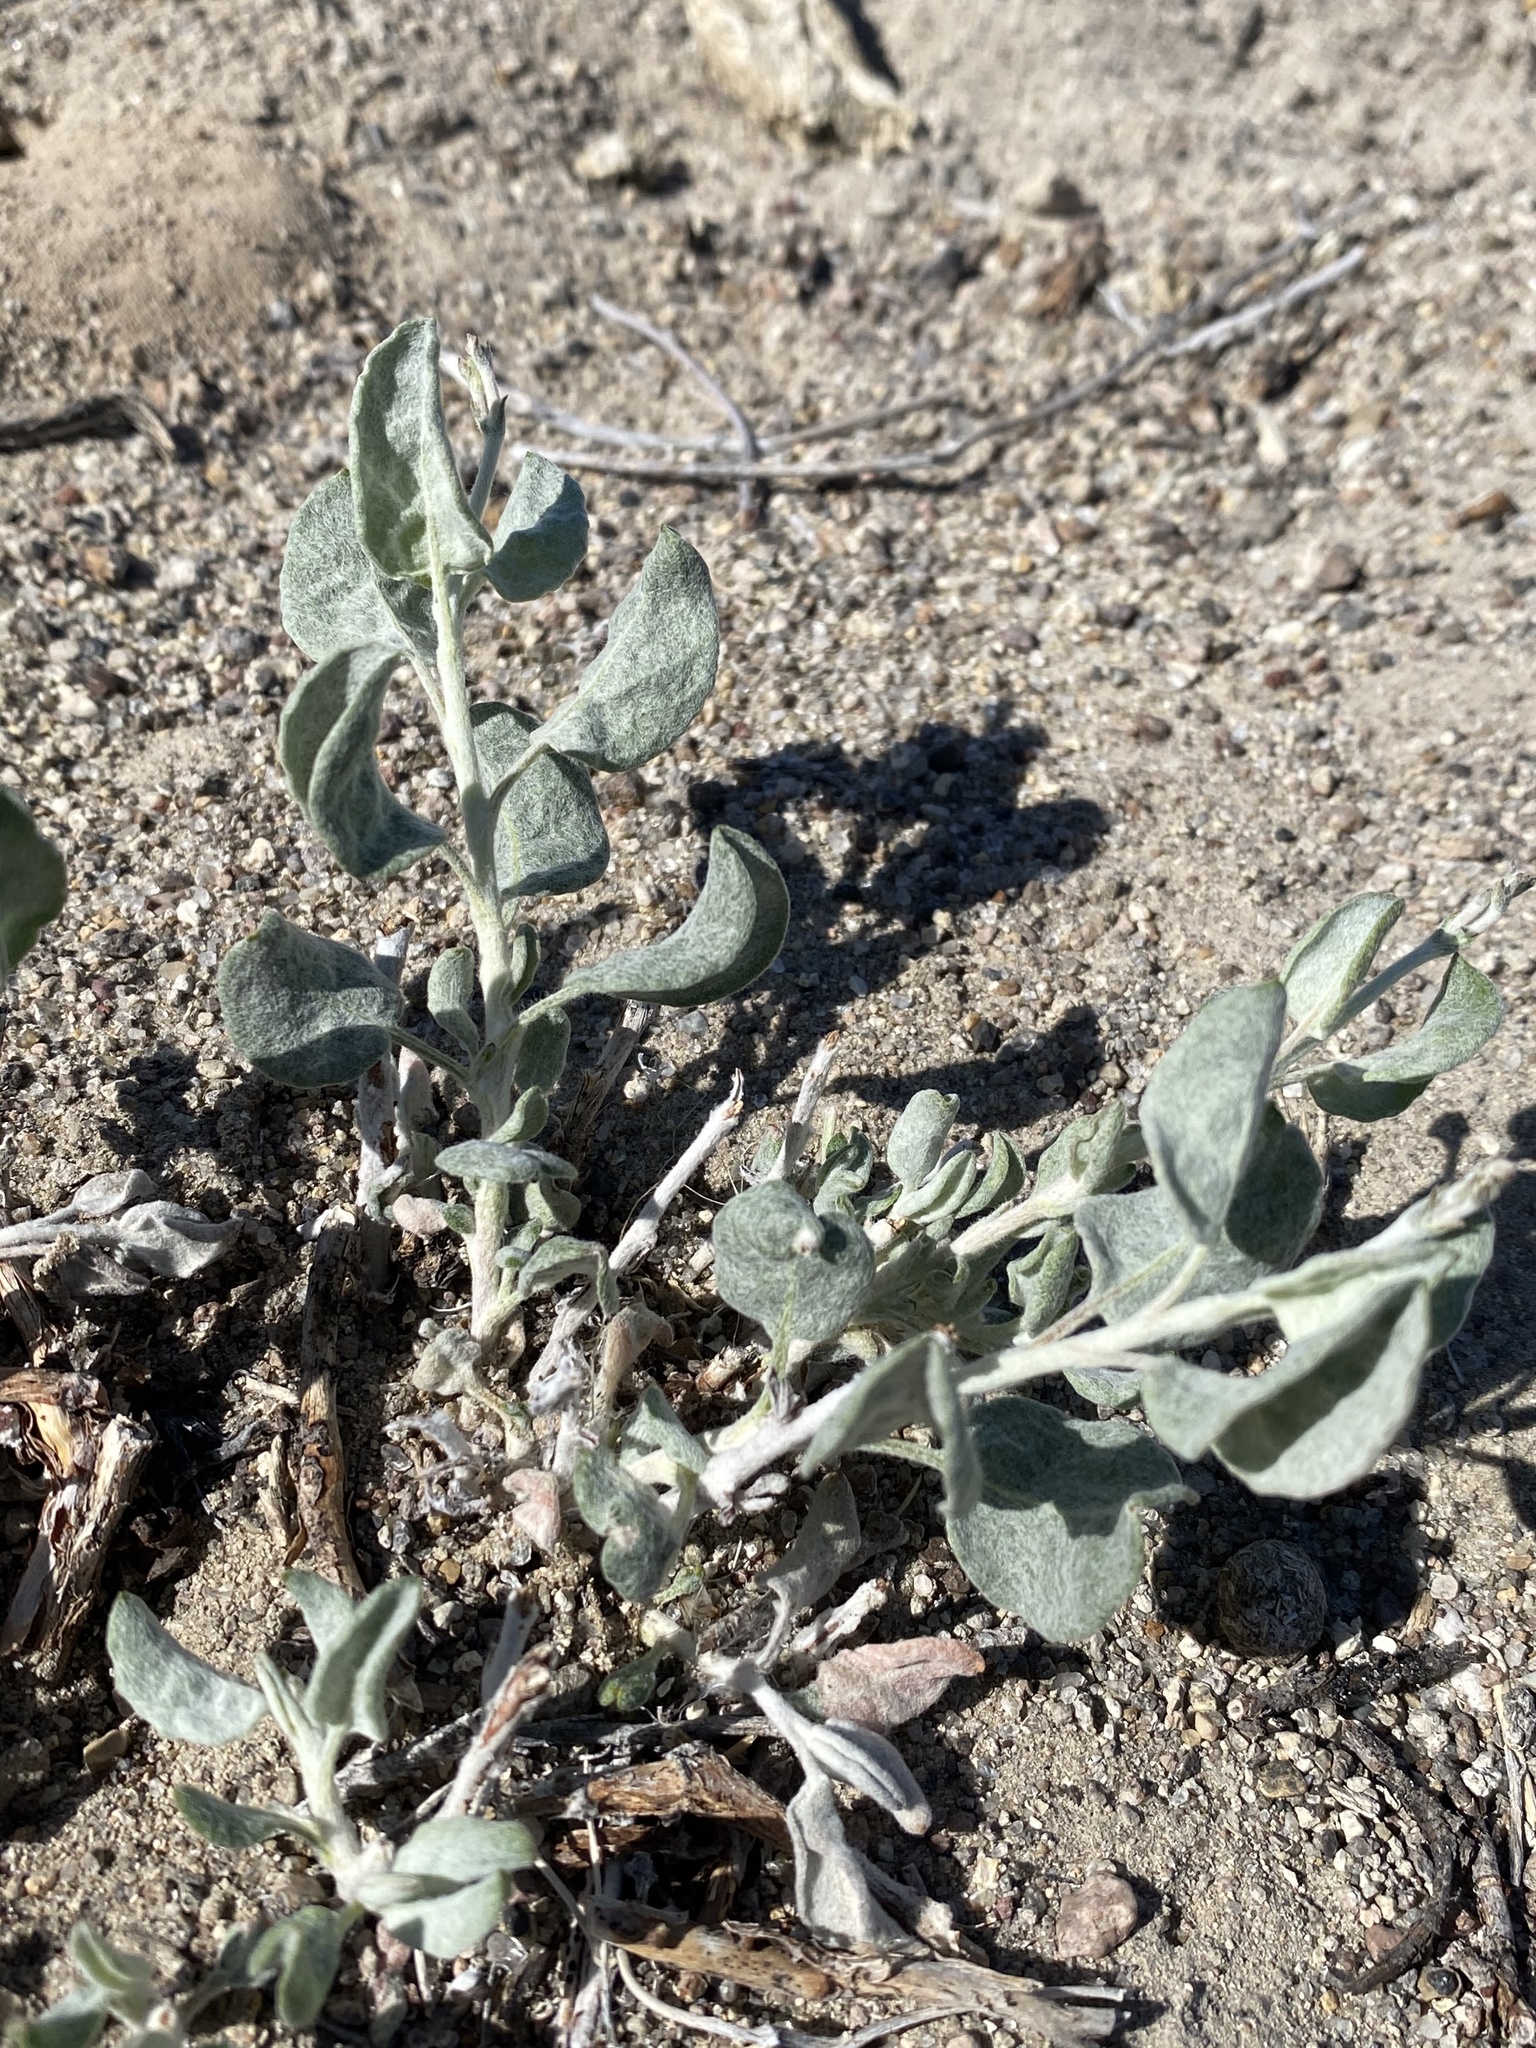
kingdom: Plantae
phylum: Tracheophyta
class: Magnoliopsida
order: Caryophyllales
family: Polygonaceae
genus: Eriogonum
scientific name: Eriogonum nummulare
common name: Kearney wild buckwheat
